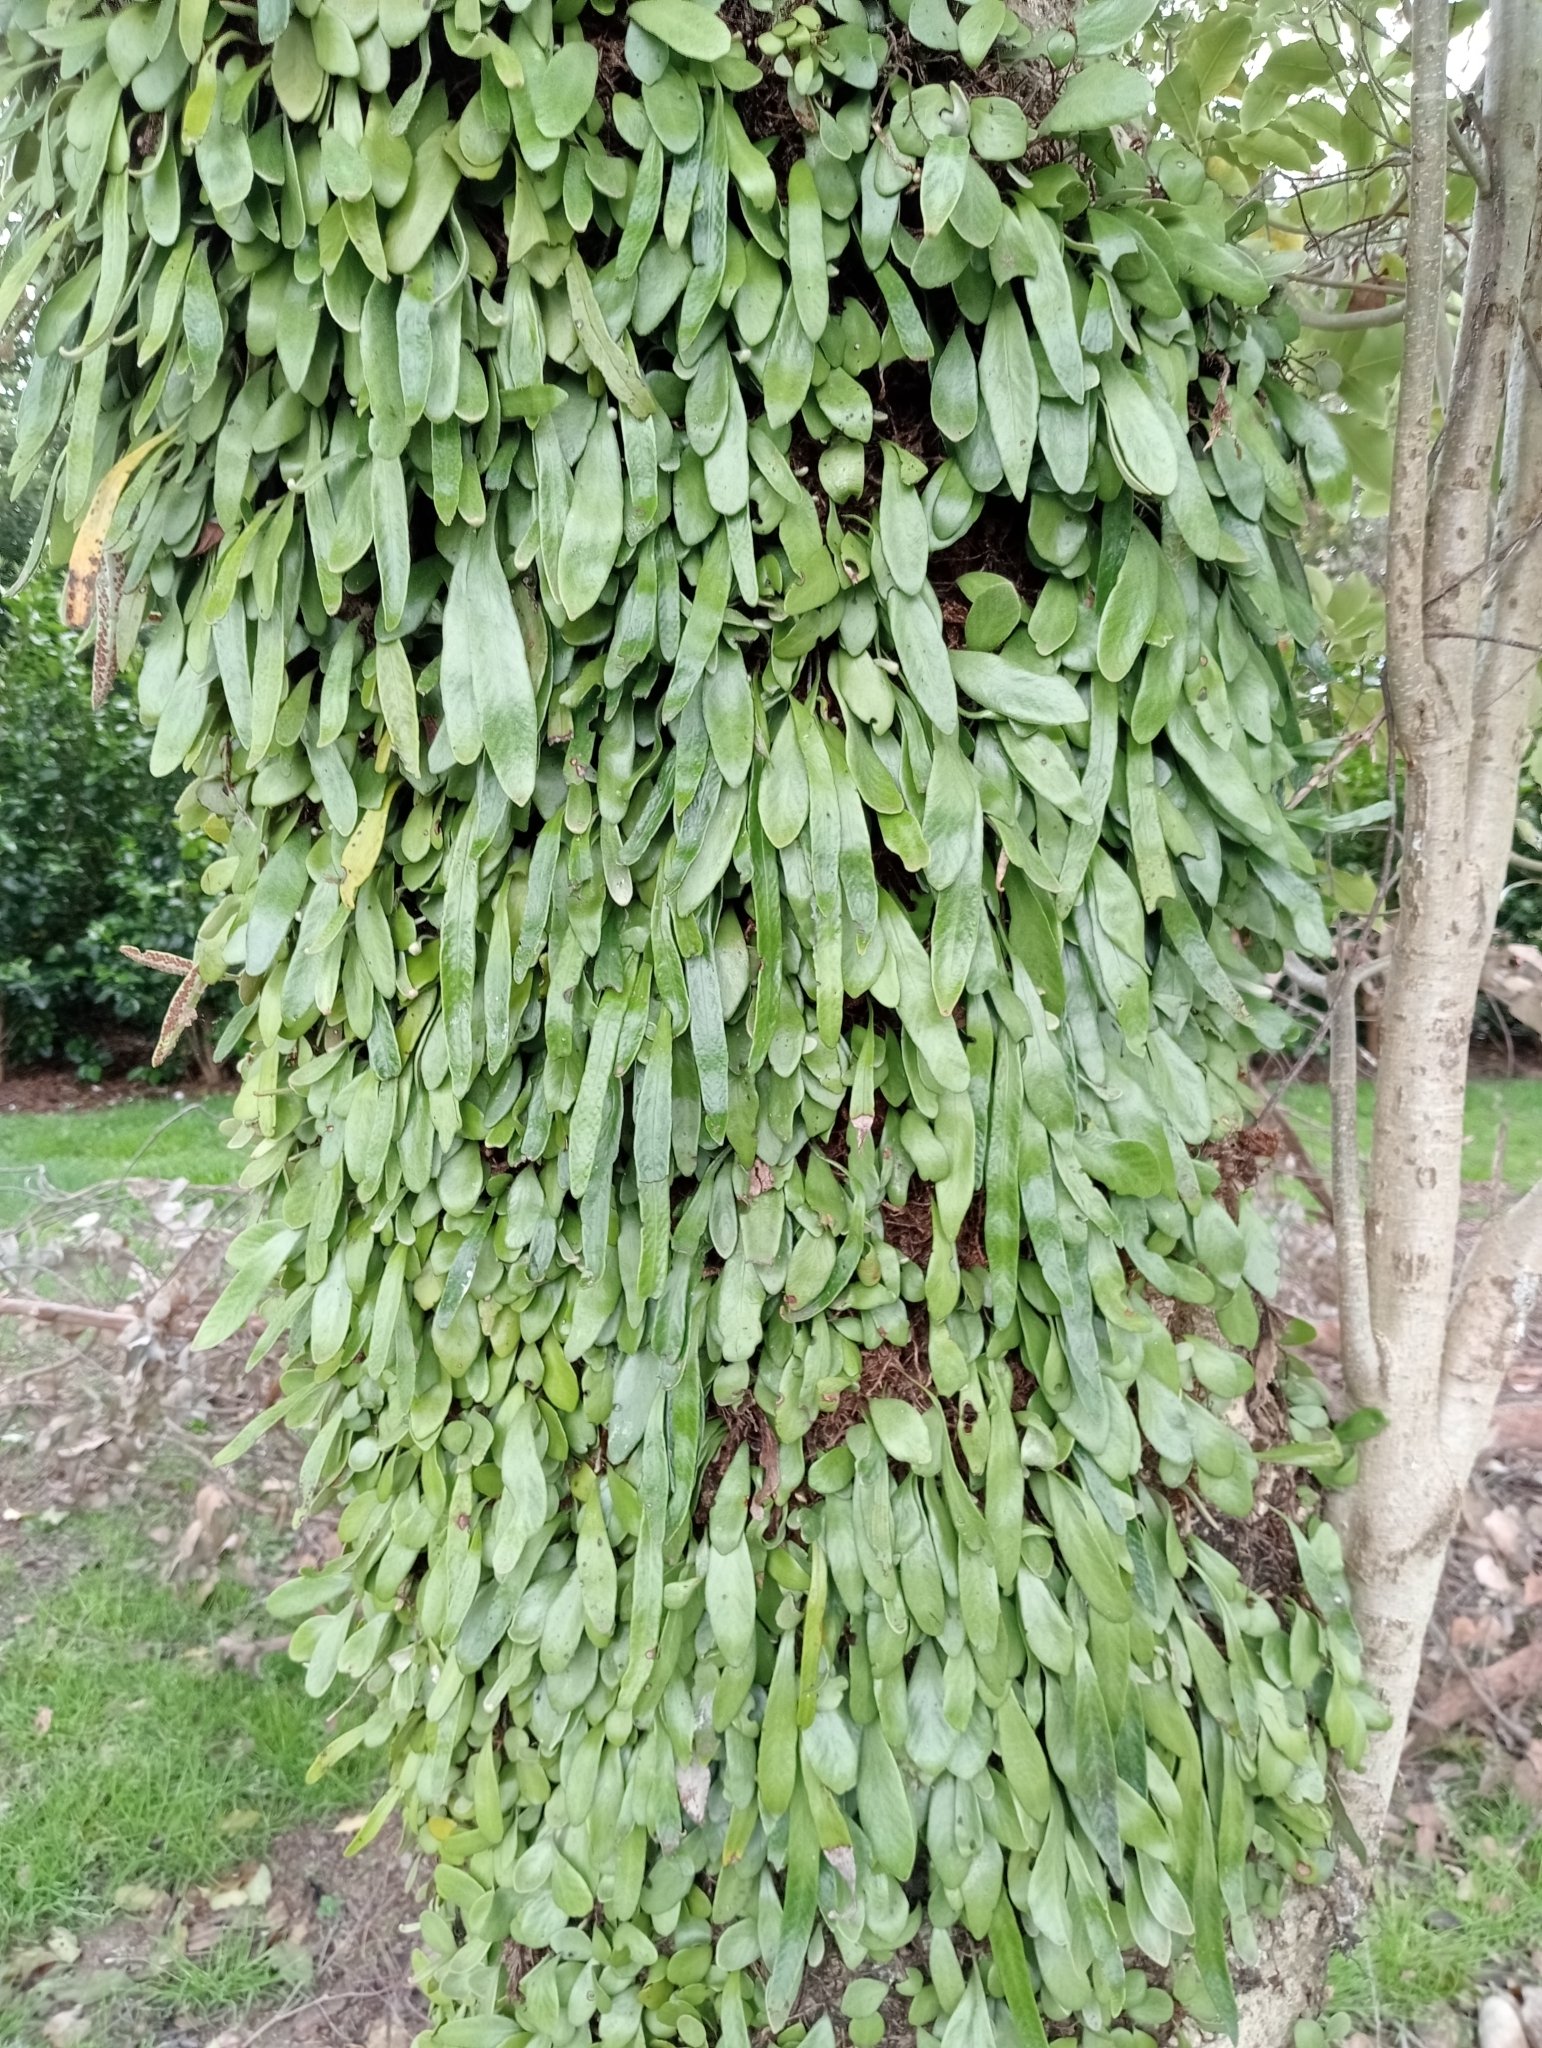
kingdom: Plantae
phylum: Tracheophyta
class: Polypodiopsida
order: Polypodiales
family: Polypodiaceae
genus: Pyrrosia
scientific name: Pyrrosia eleagnifolia
